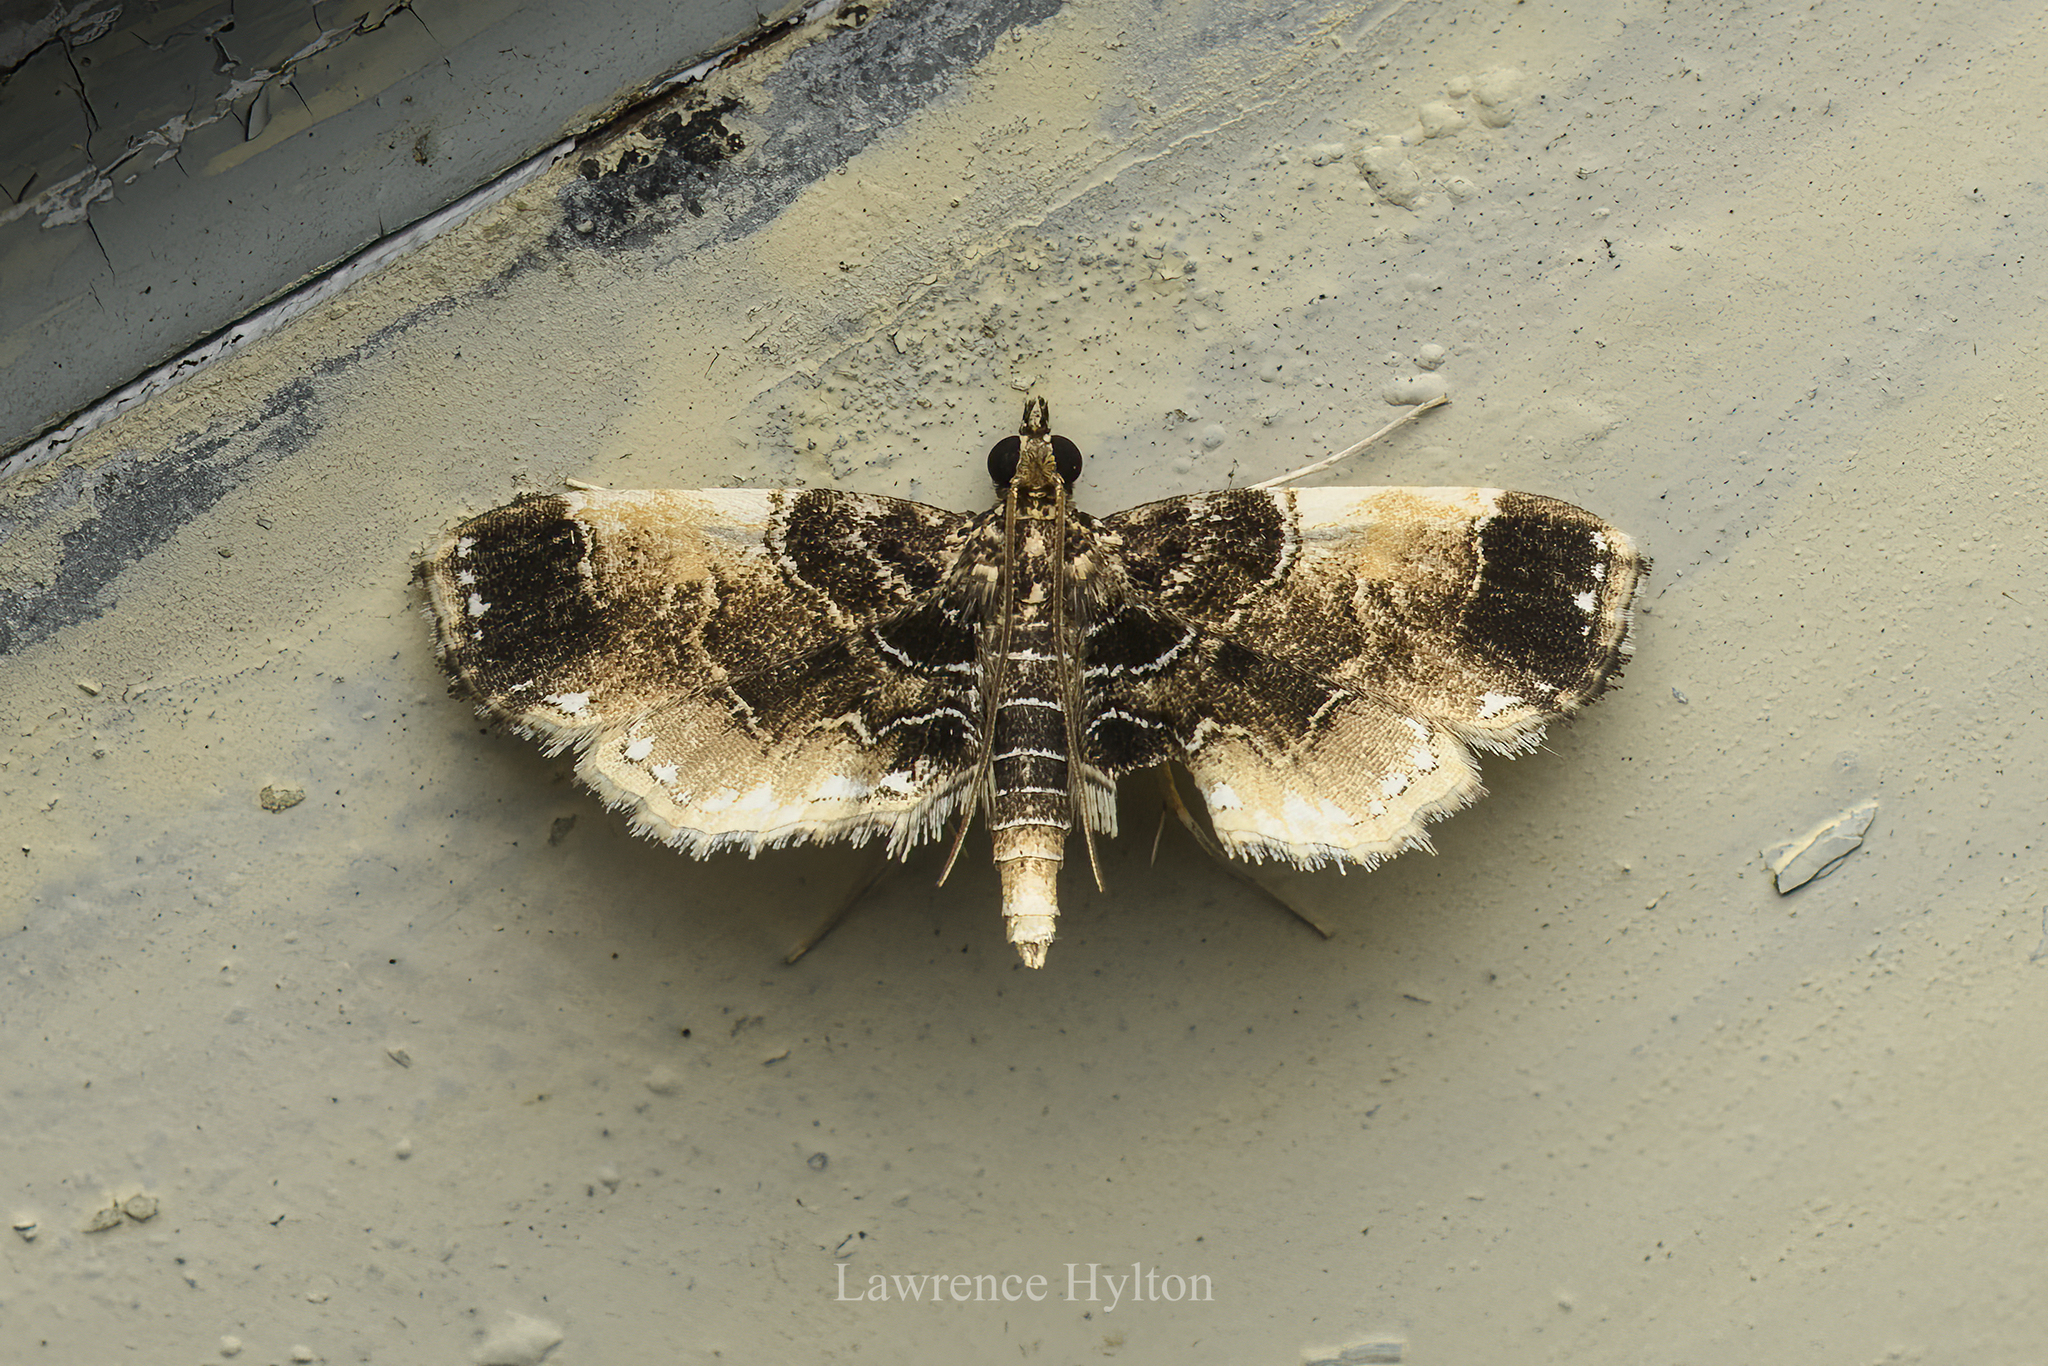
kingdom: Animalia
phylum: Arthropoda
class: Insecta
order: Lepidoptera
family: Crambidae
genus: Thysanoidma
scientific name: Thysanoidma stellata
